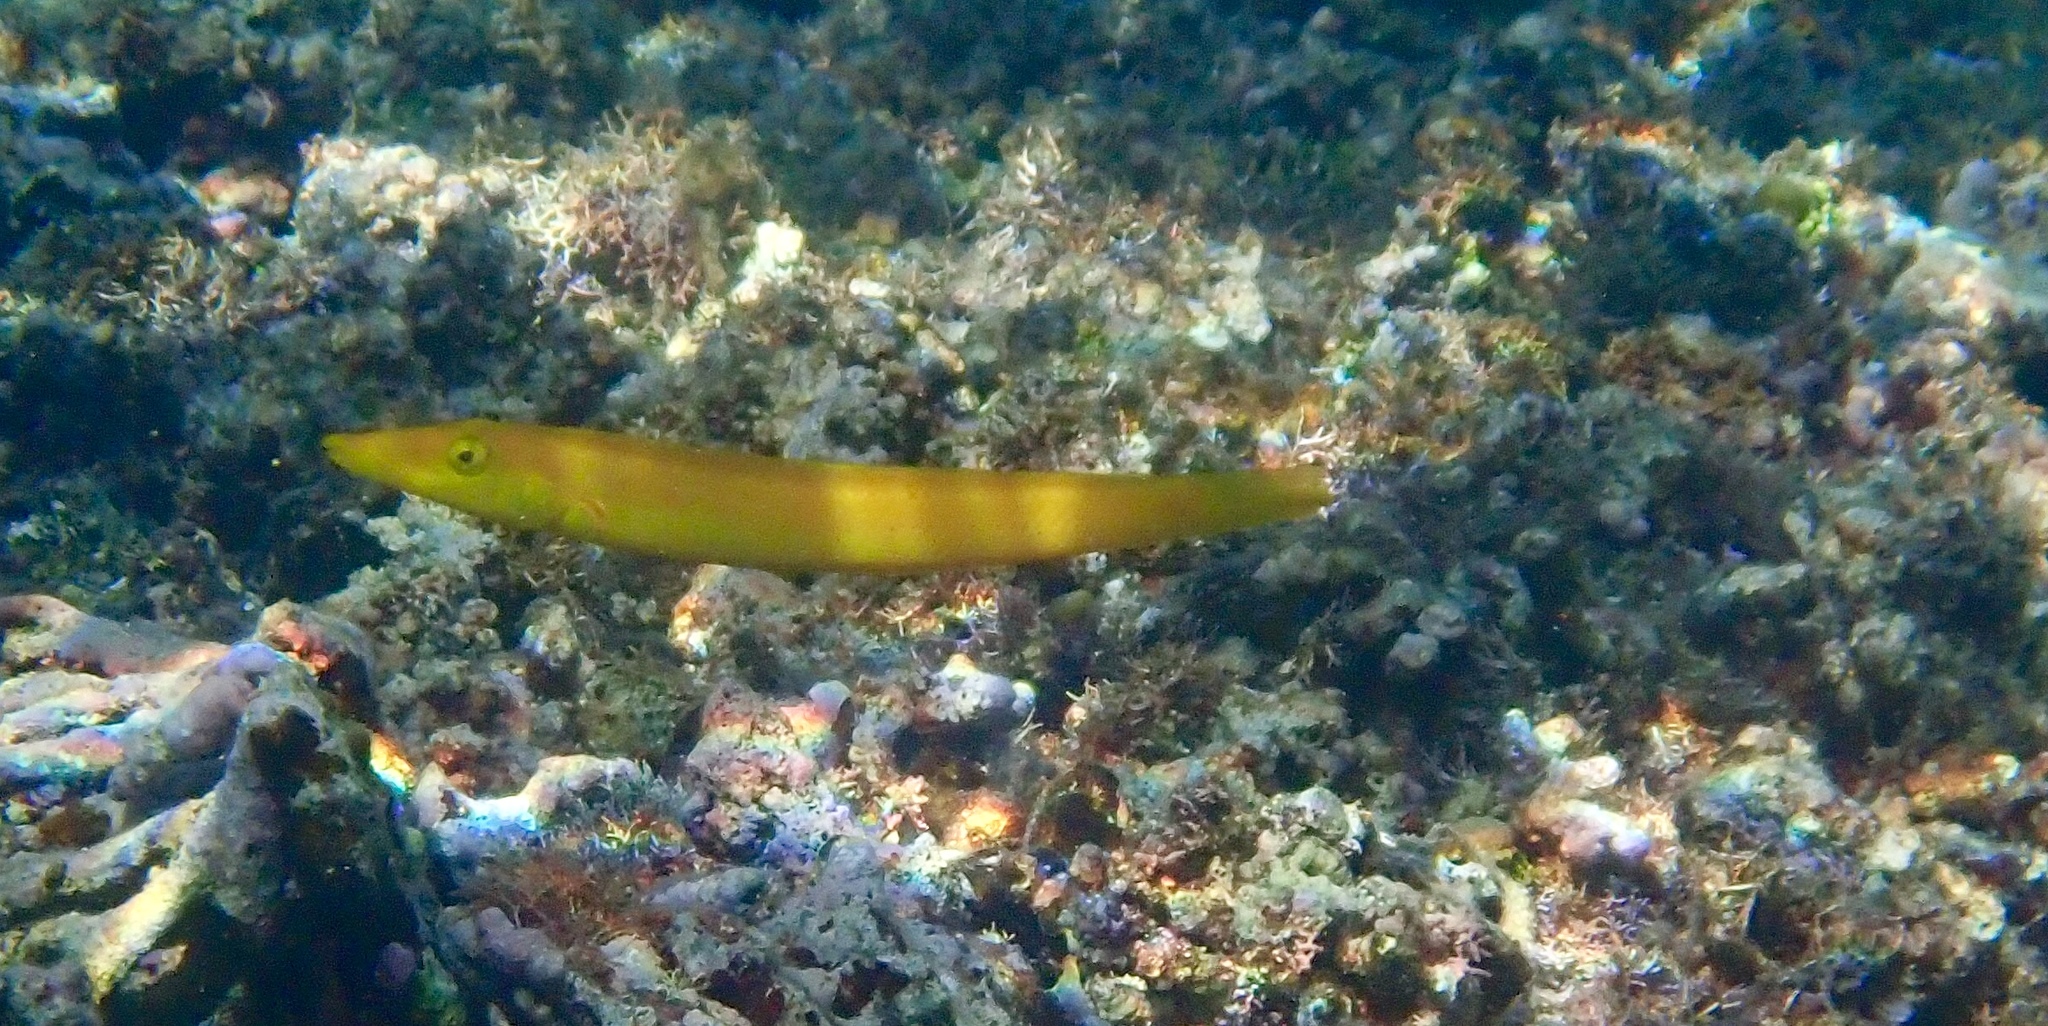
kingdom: Animalia
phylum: Chordata
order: Perciformes
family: Labridae
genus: Cheilio
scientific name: Cheilio inermis
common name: Cigar wrasse
